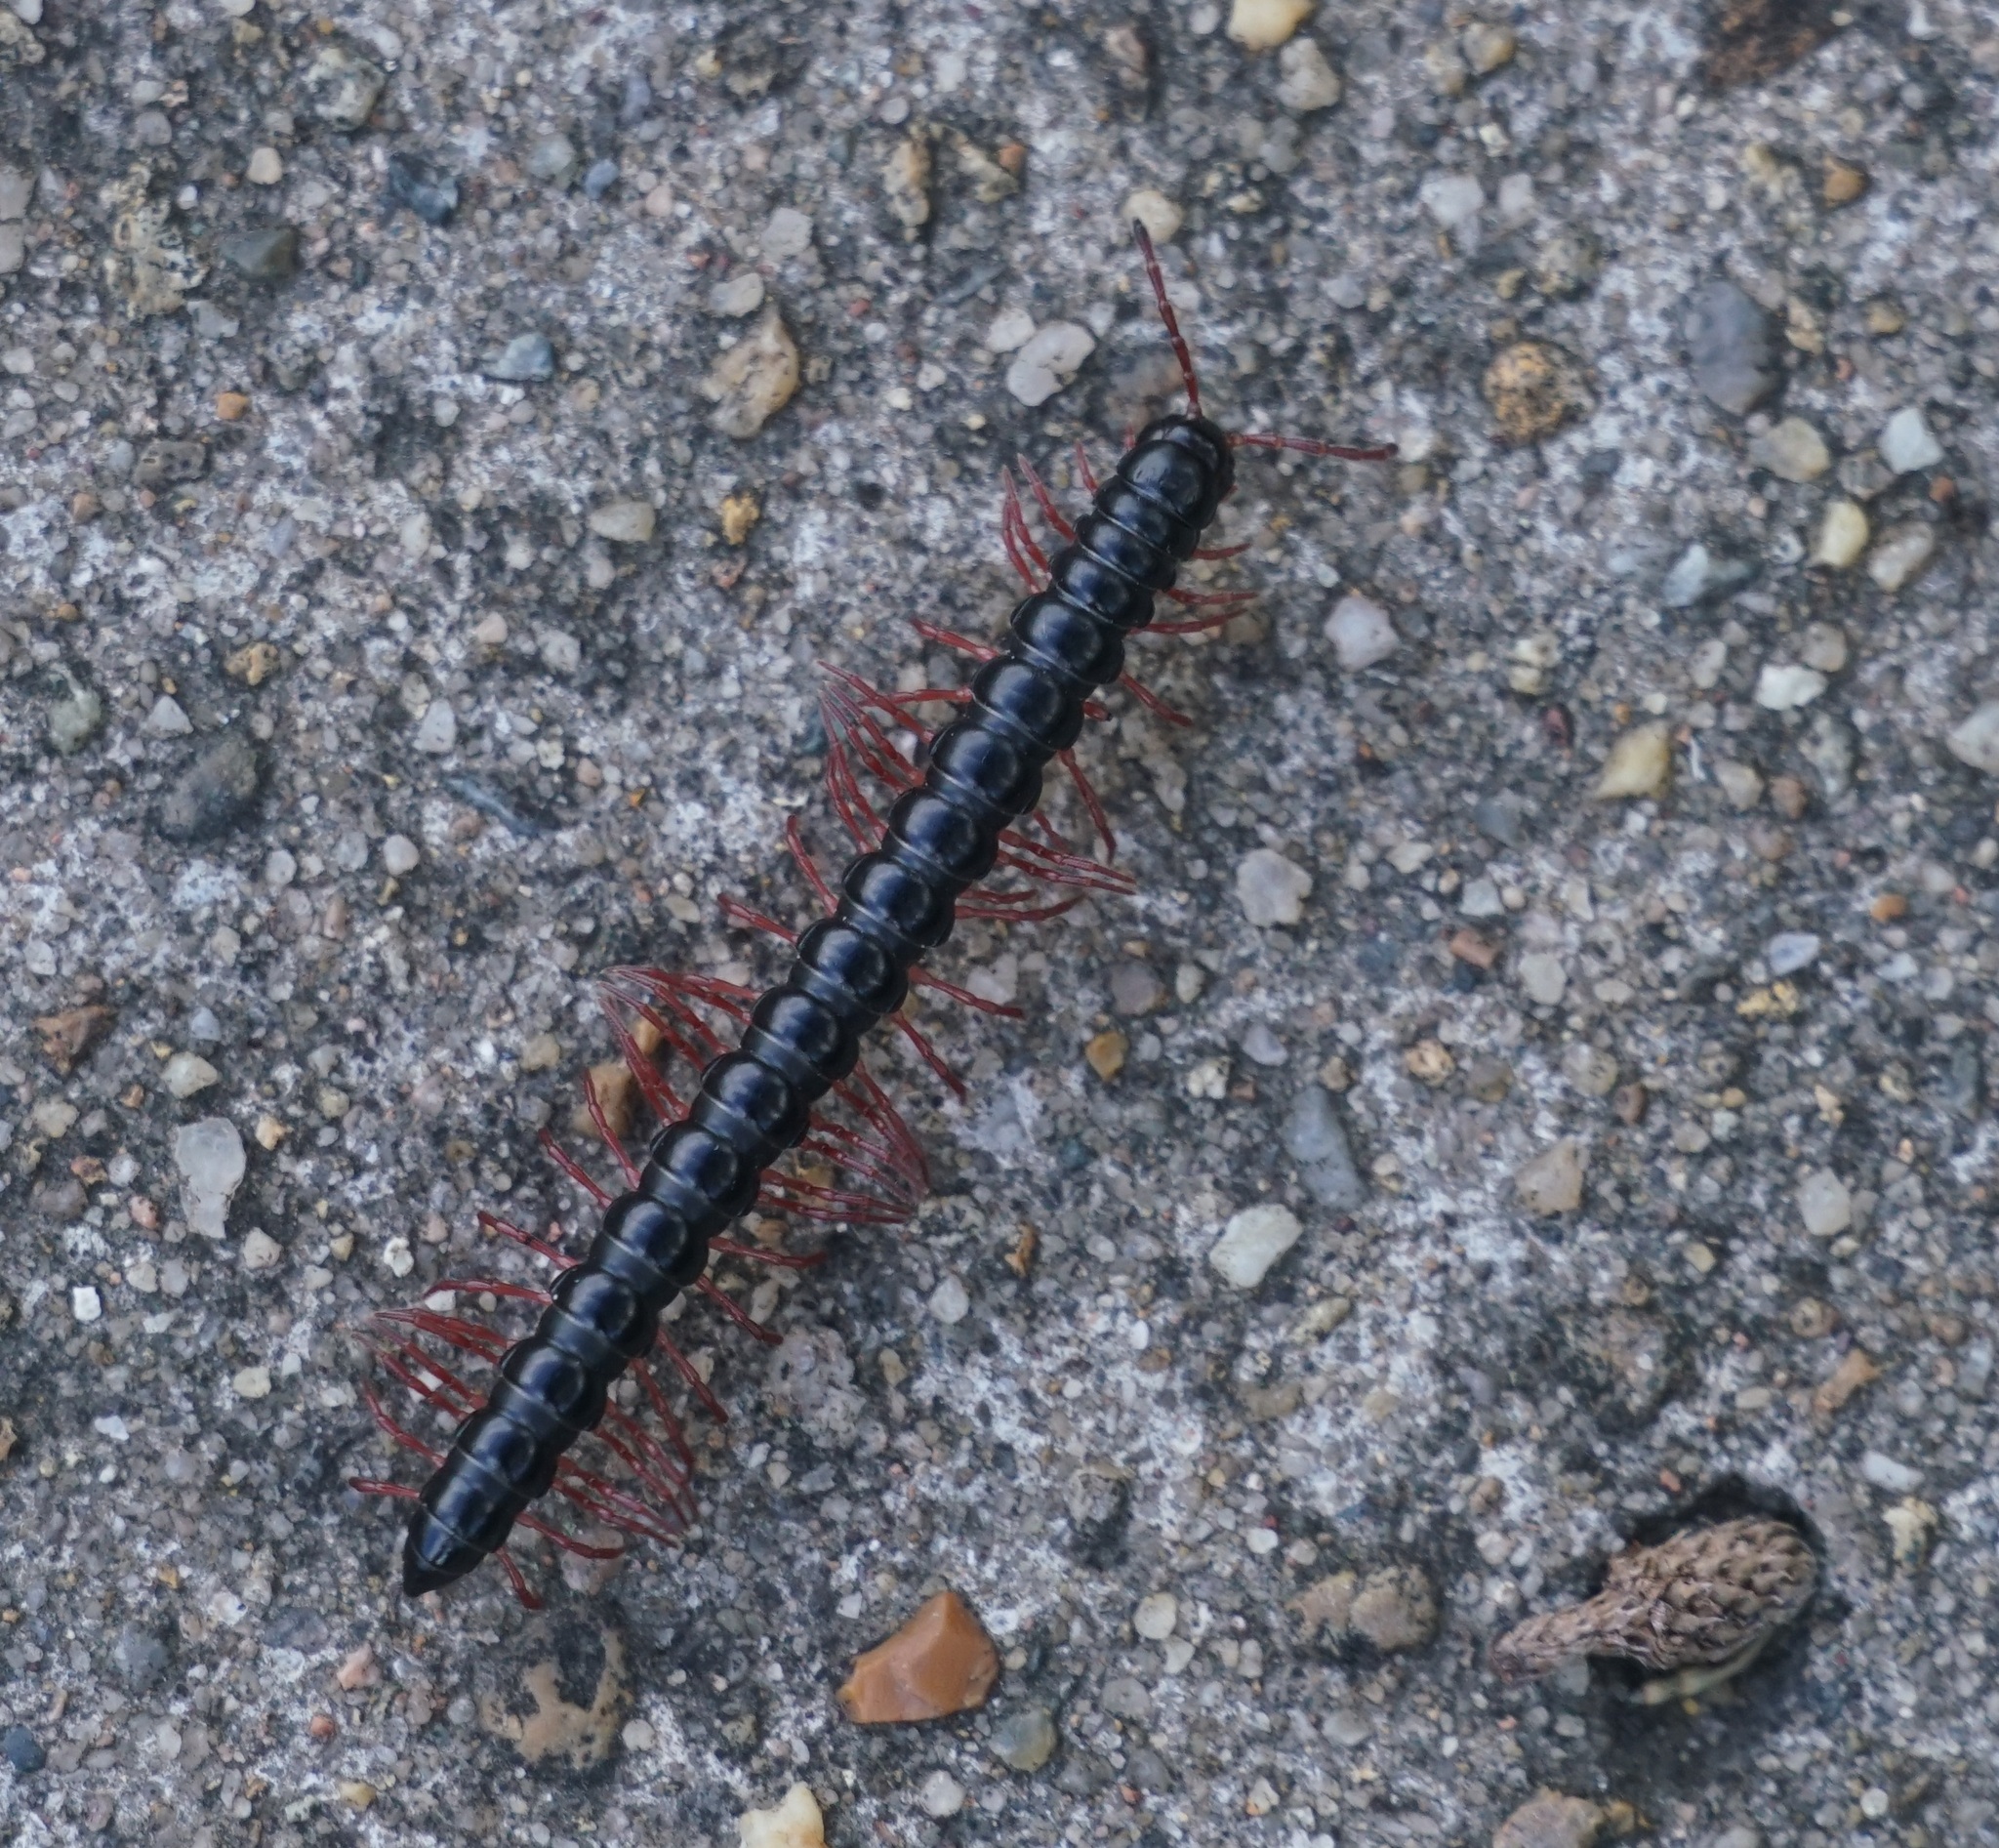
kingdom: Animalia
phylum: Arthropoda
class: Diplopoda
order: Polydesmida
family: Paradoxosomatidae
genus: Heterocladosoma
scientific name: Heterocladosoma
